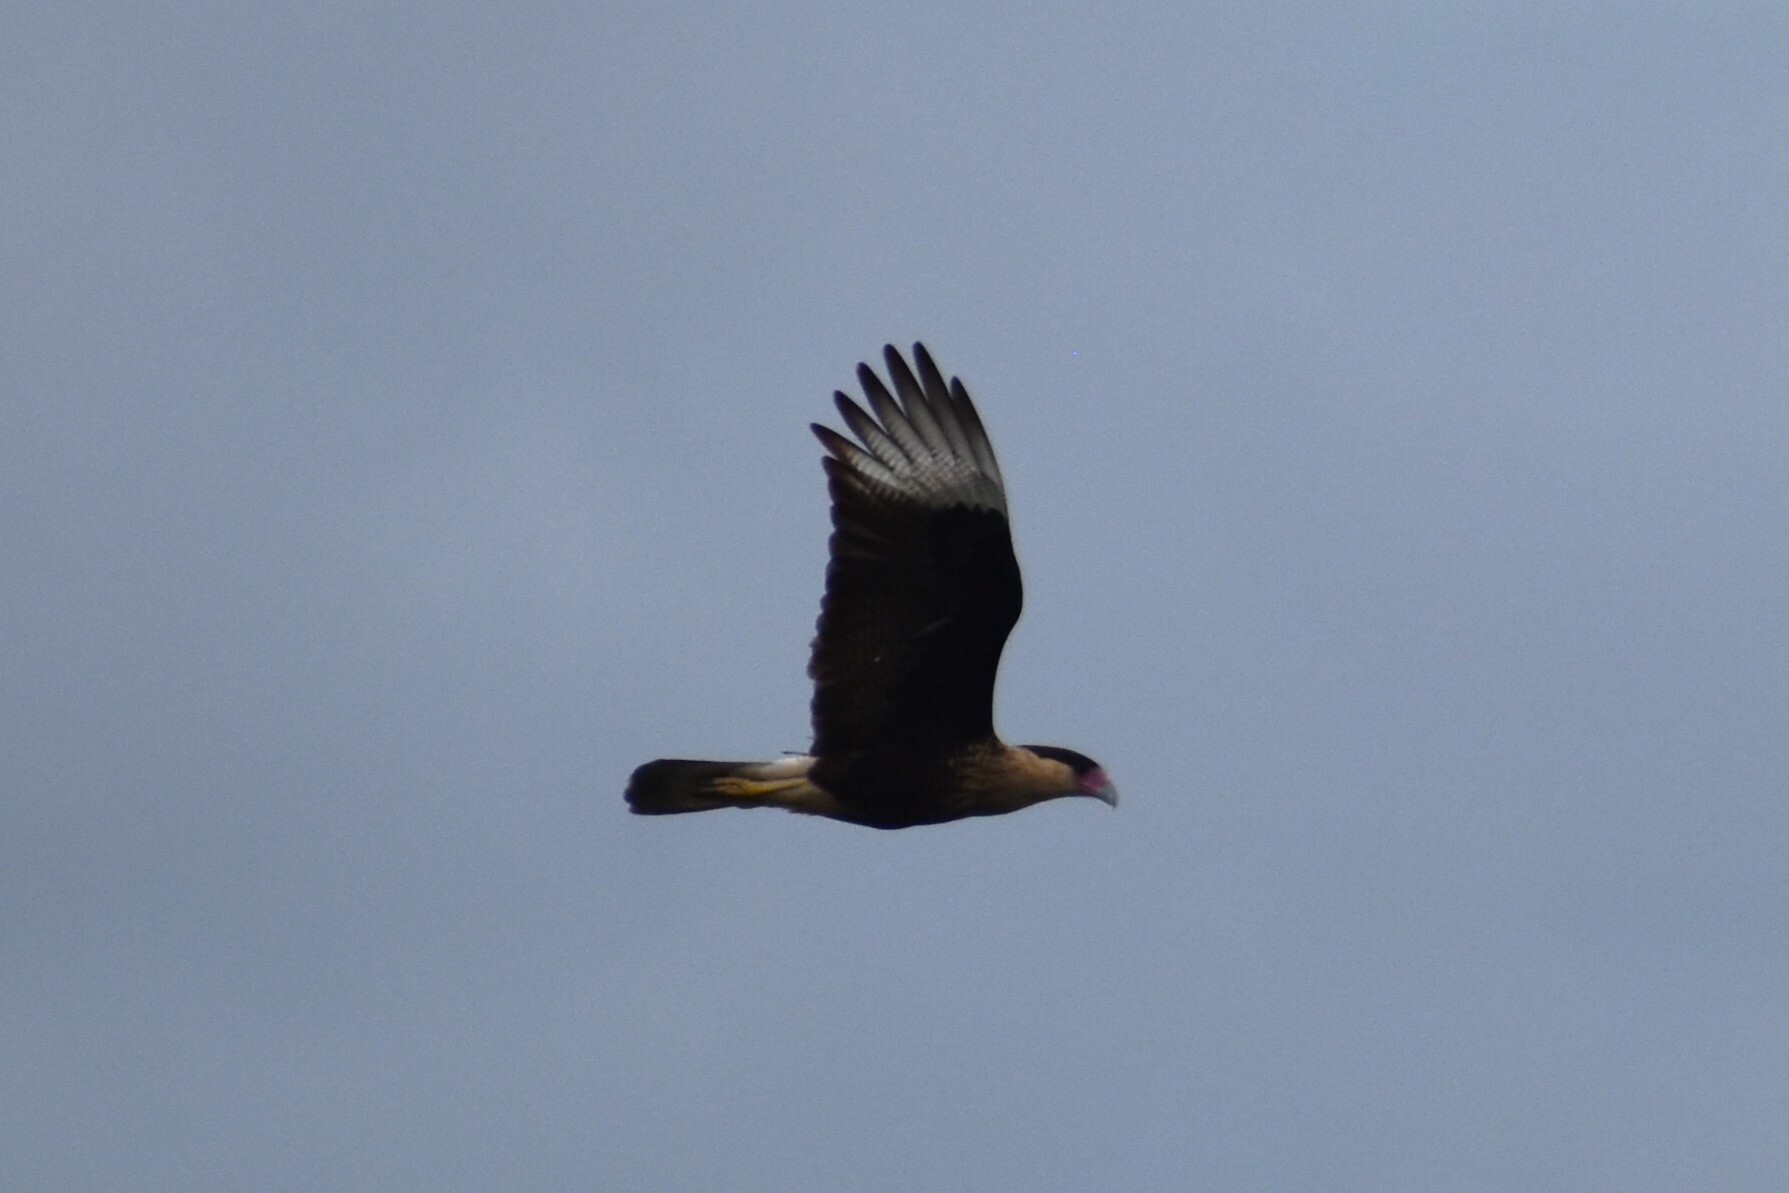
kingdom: Animalia
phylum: Chordata
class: Aves
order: Falconiformes
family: Falconidae
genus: Caracara
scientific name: Caracara plancus
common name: Southern caracara
